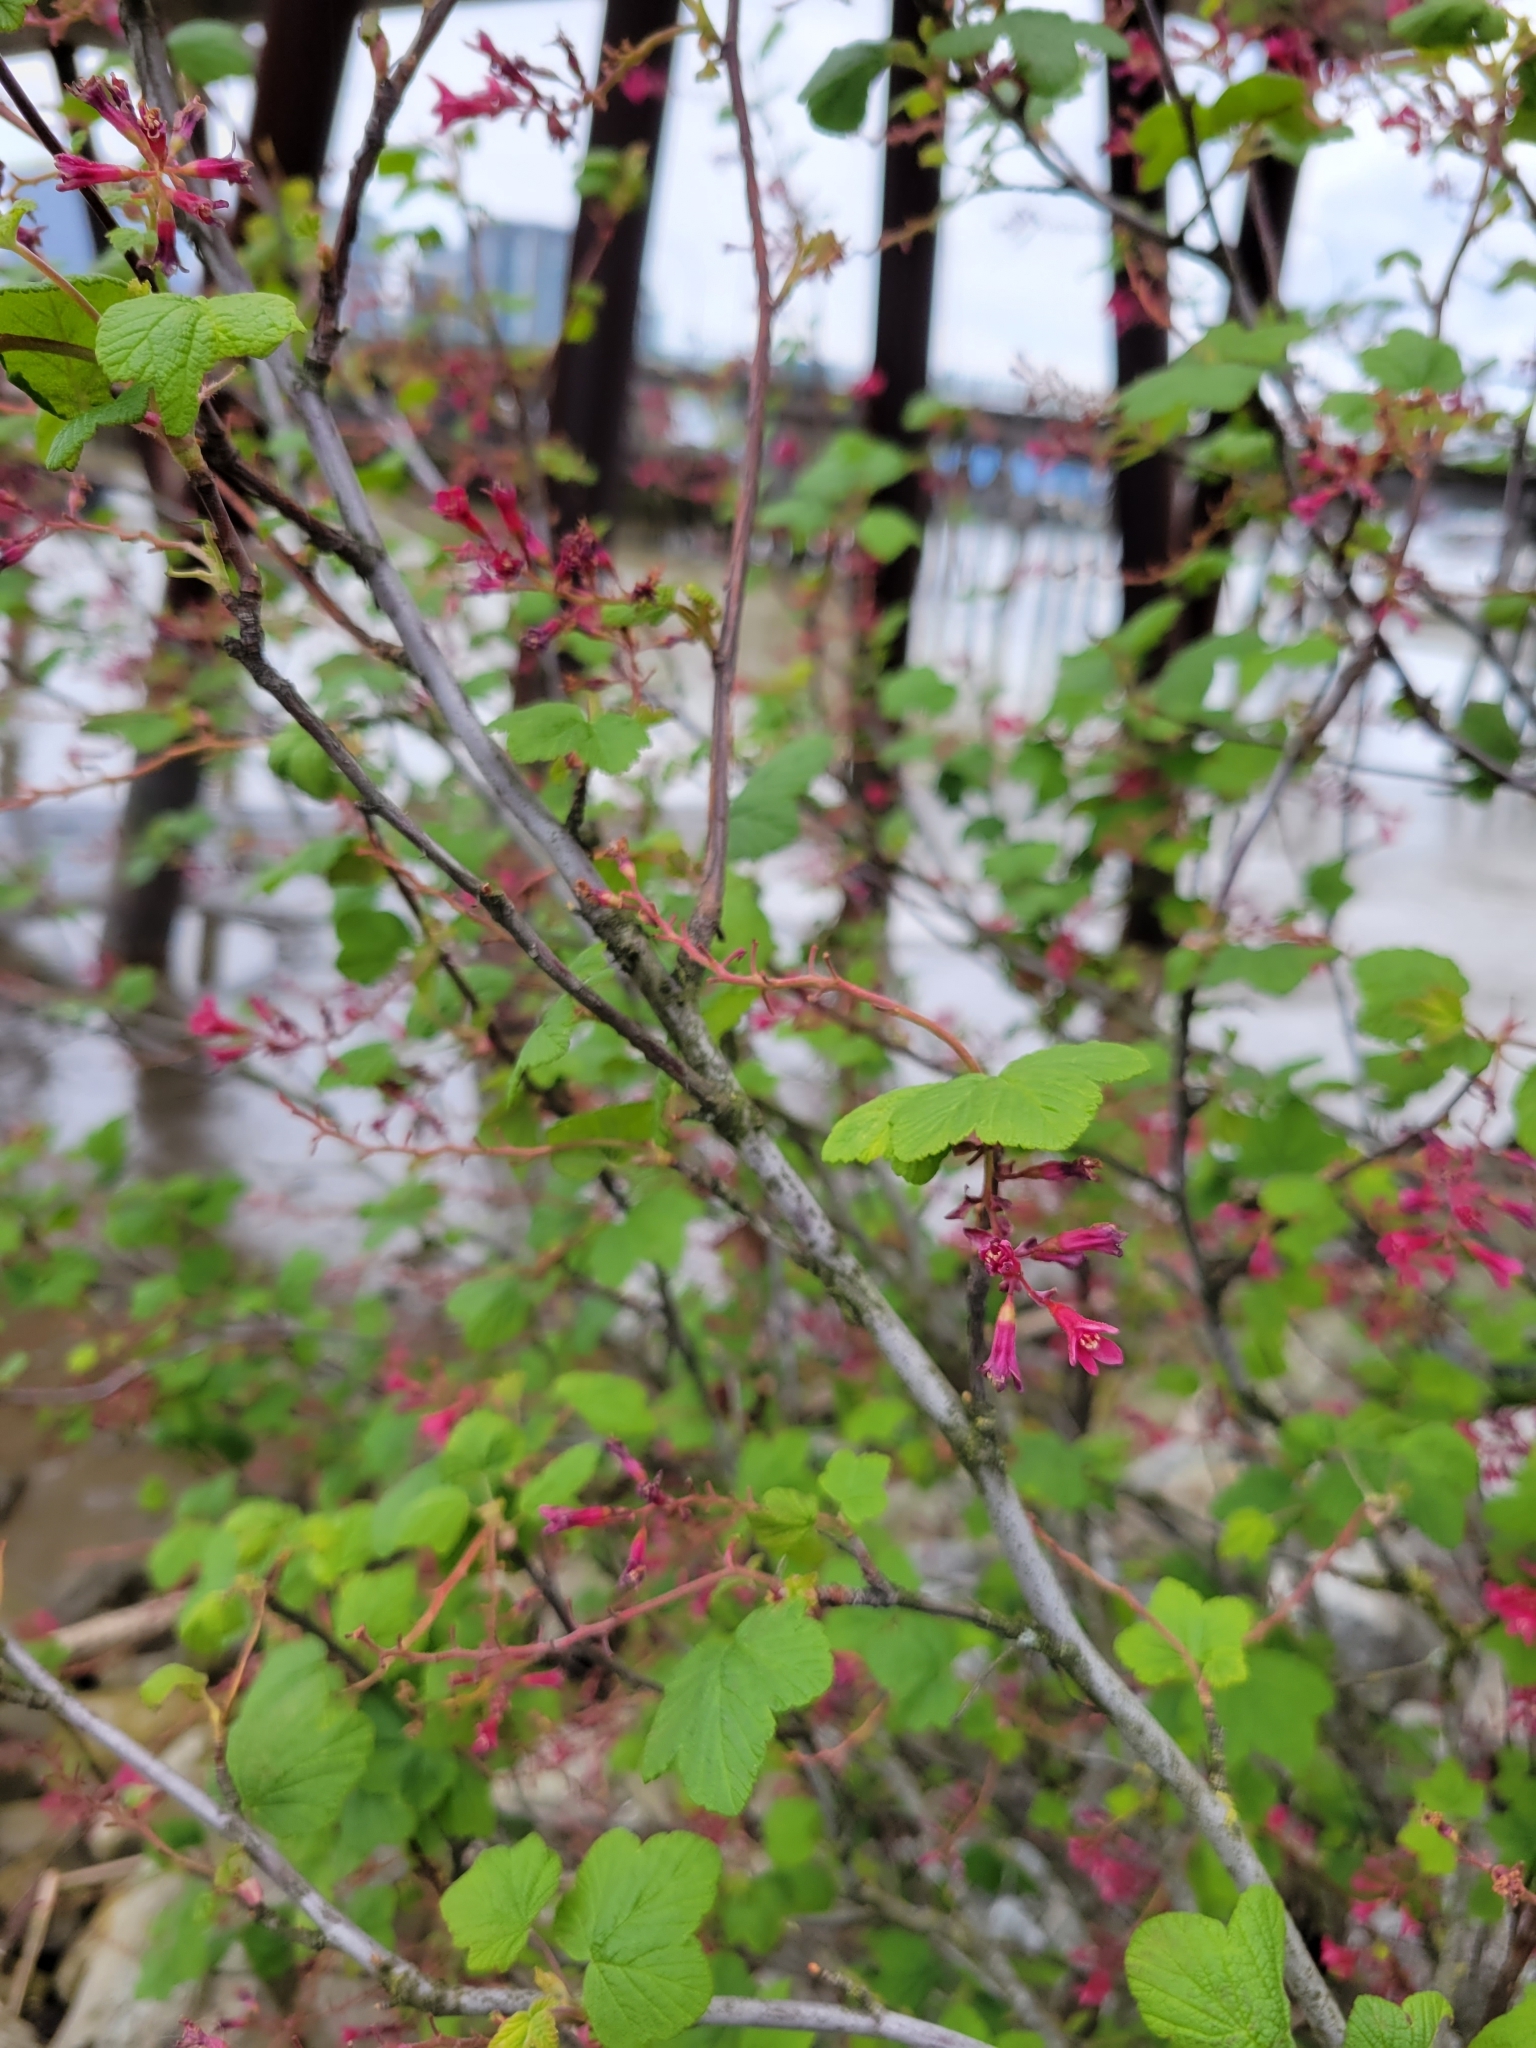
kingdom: Plantae
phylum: Tracheophyta
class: Magnoliopsida
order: Saxifragales
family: Grossulariaceae
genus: Ribes
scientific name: Ribes sanguineum
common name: Flowering currant
